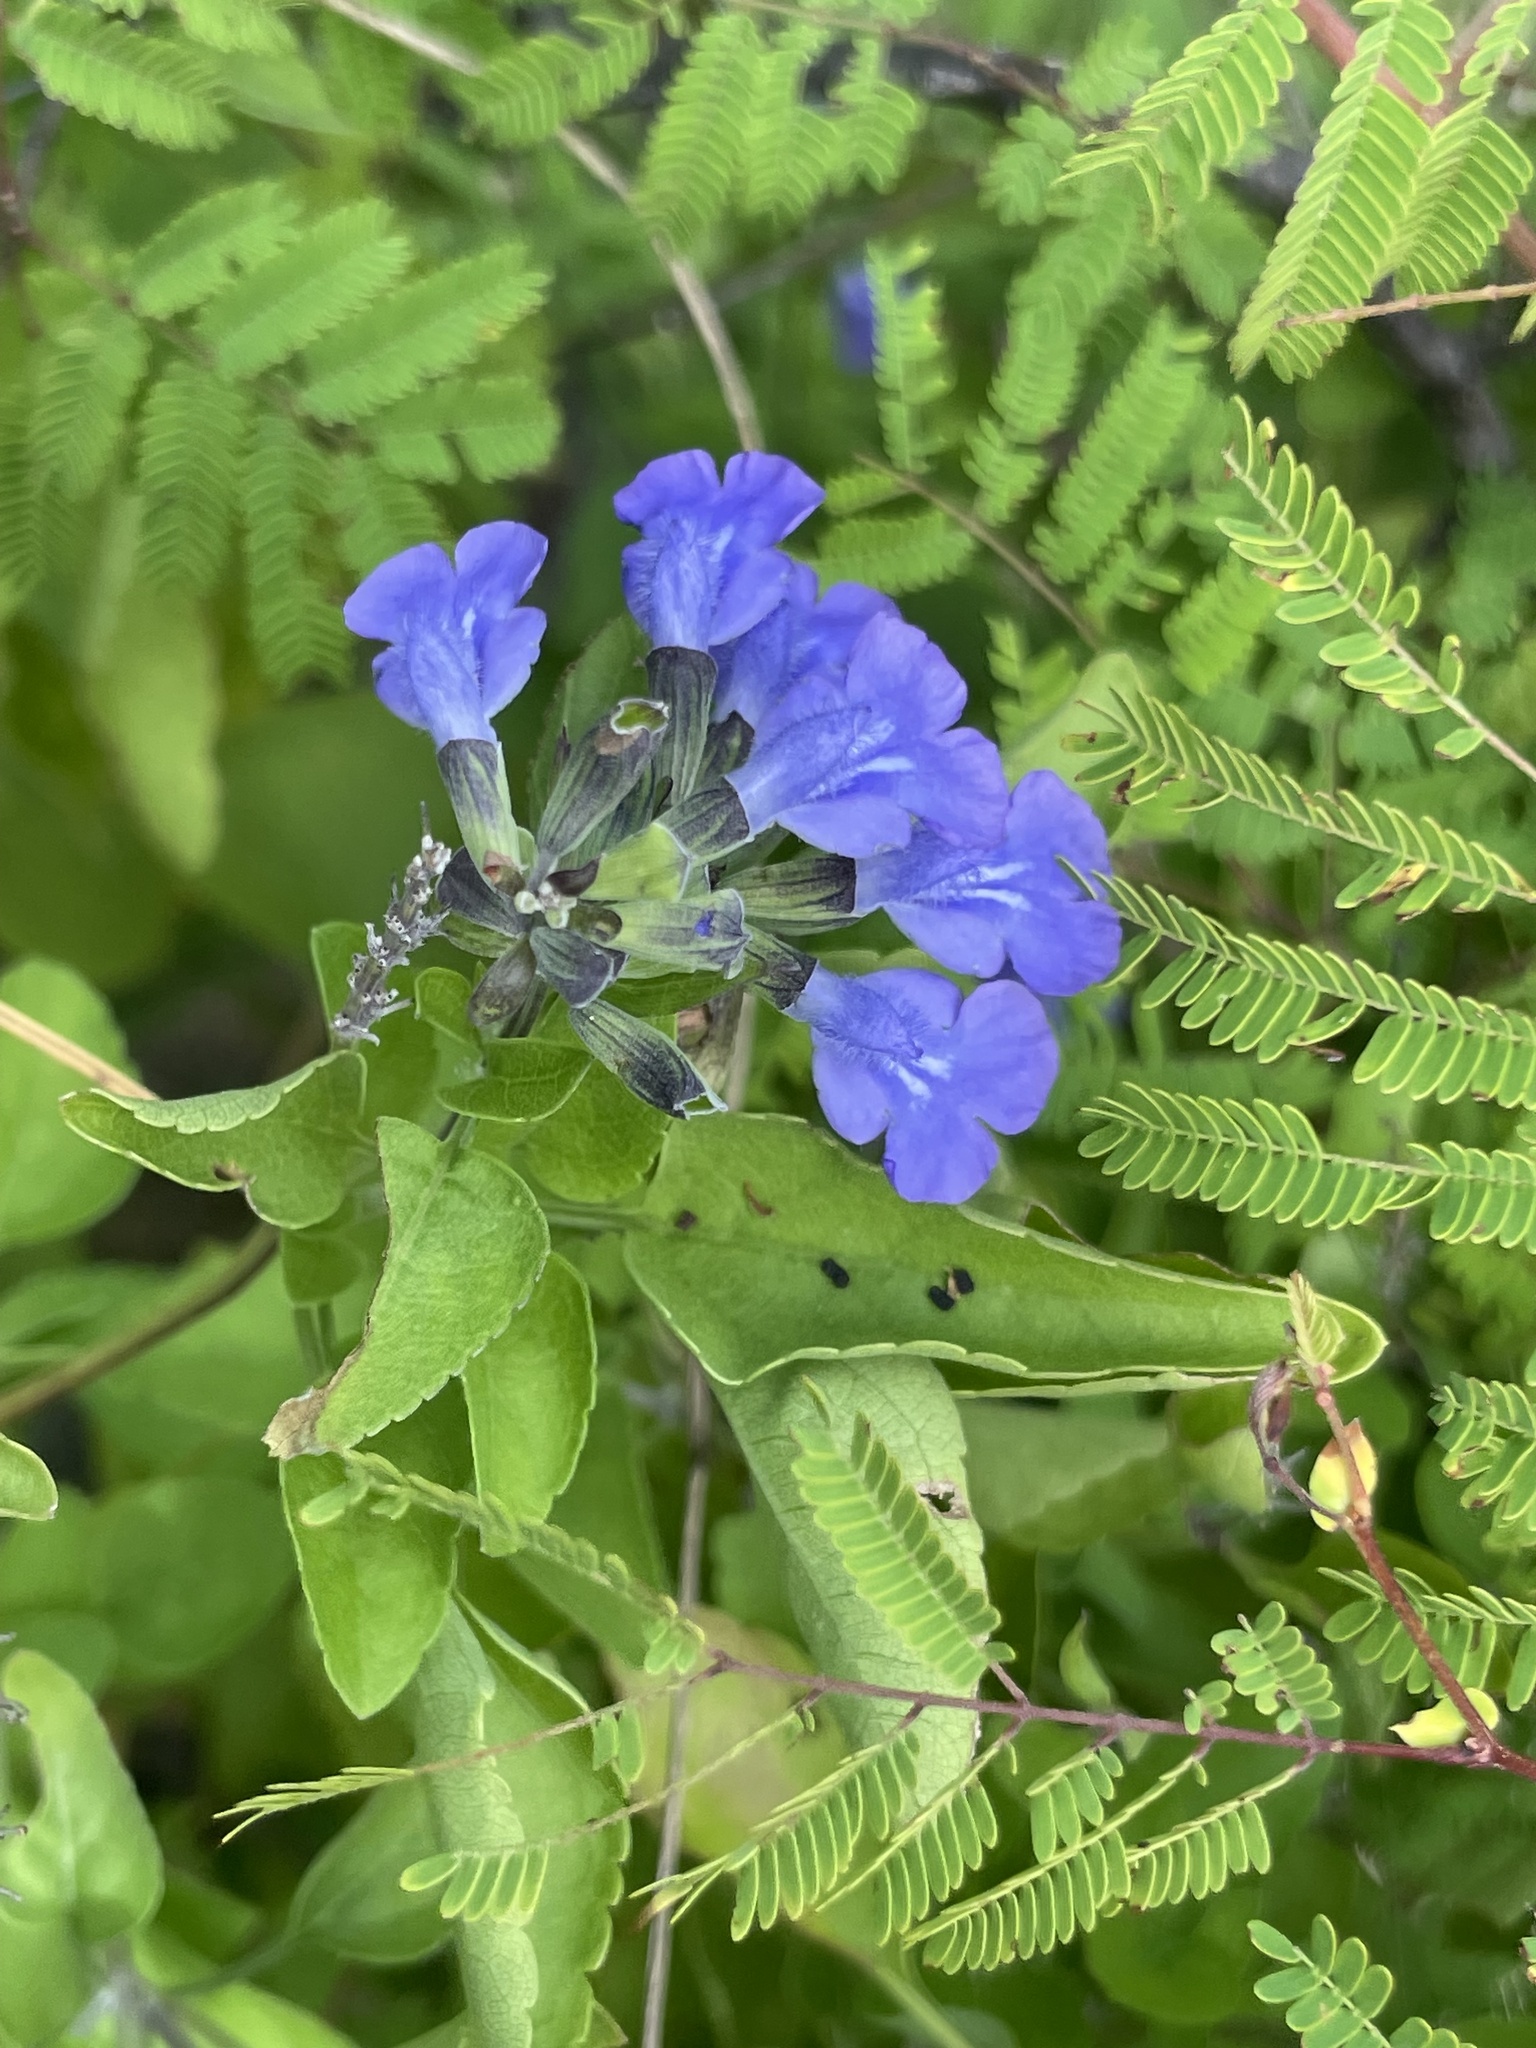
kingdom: Plantae
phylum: Tracheophyta
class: Magnoliopsida
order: Lamiales
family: Lamiaceae
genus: Salvia
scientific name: Salvia similis
